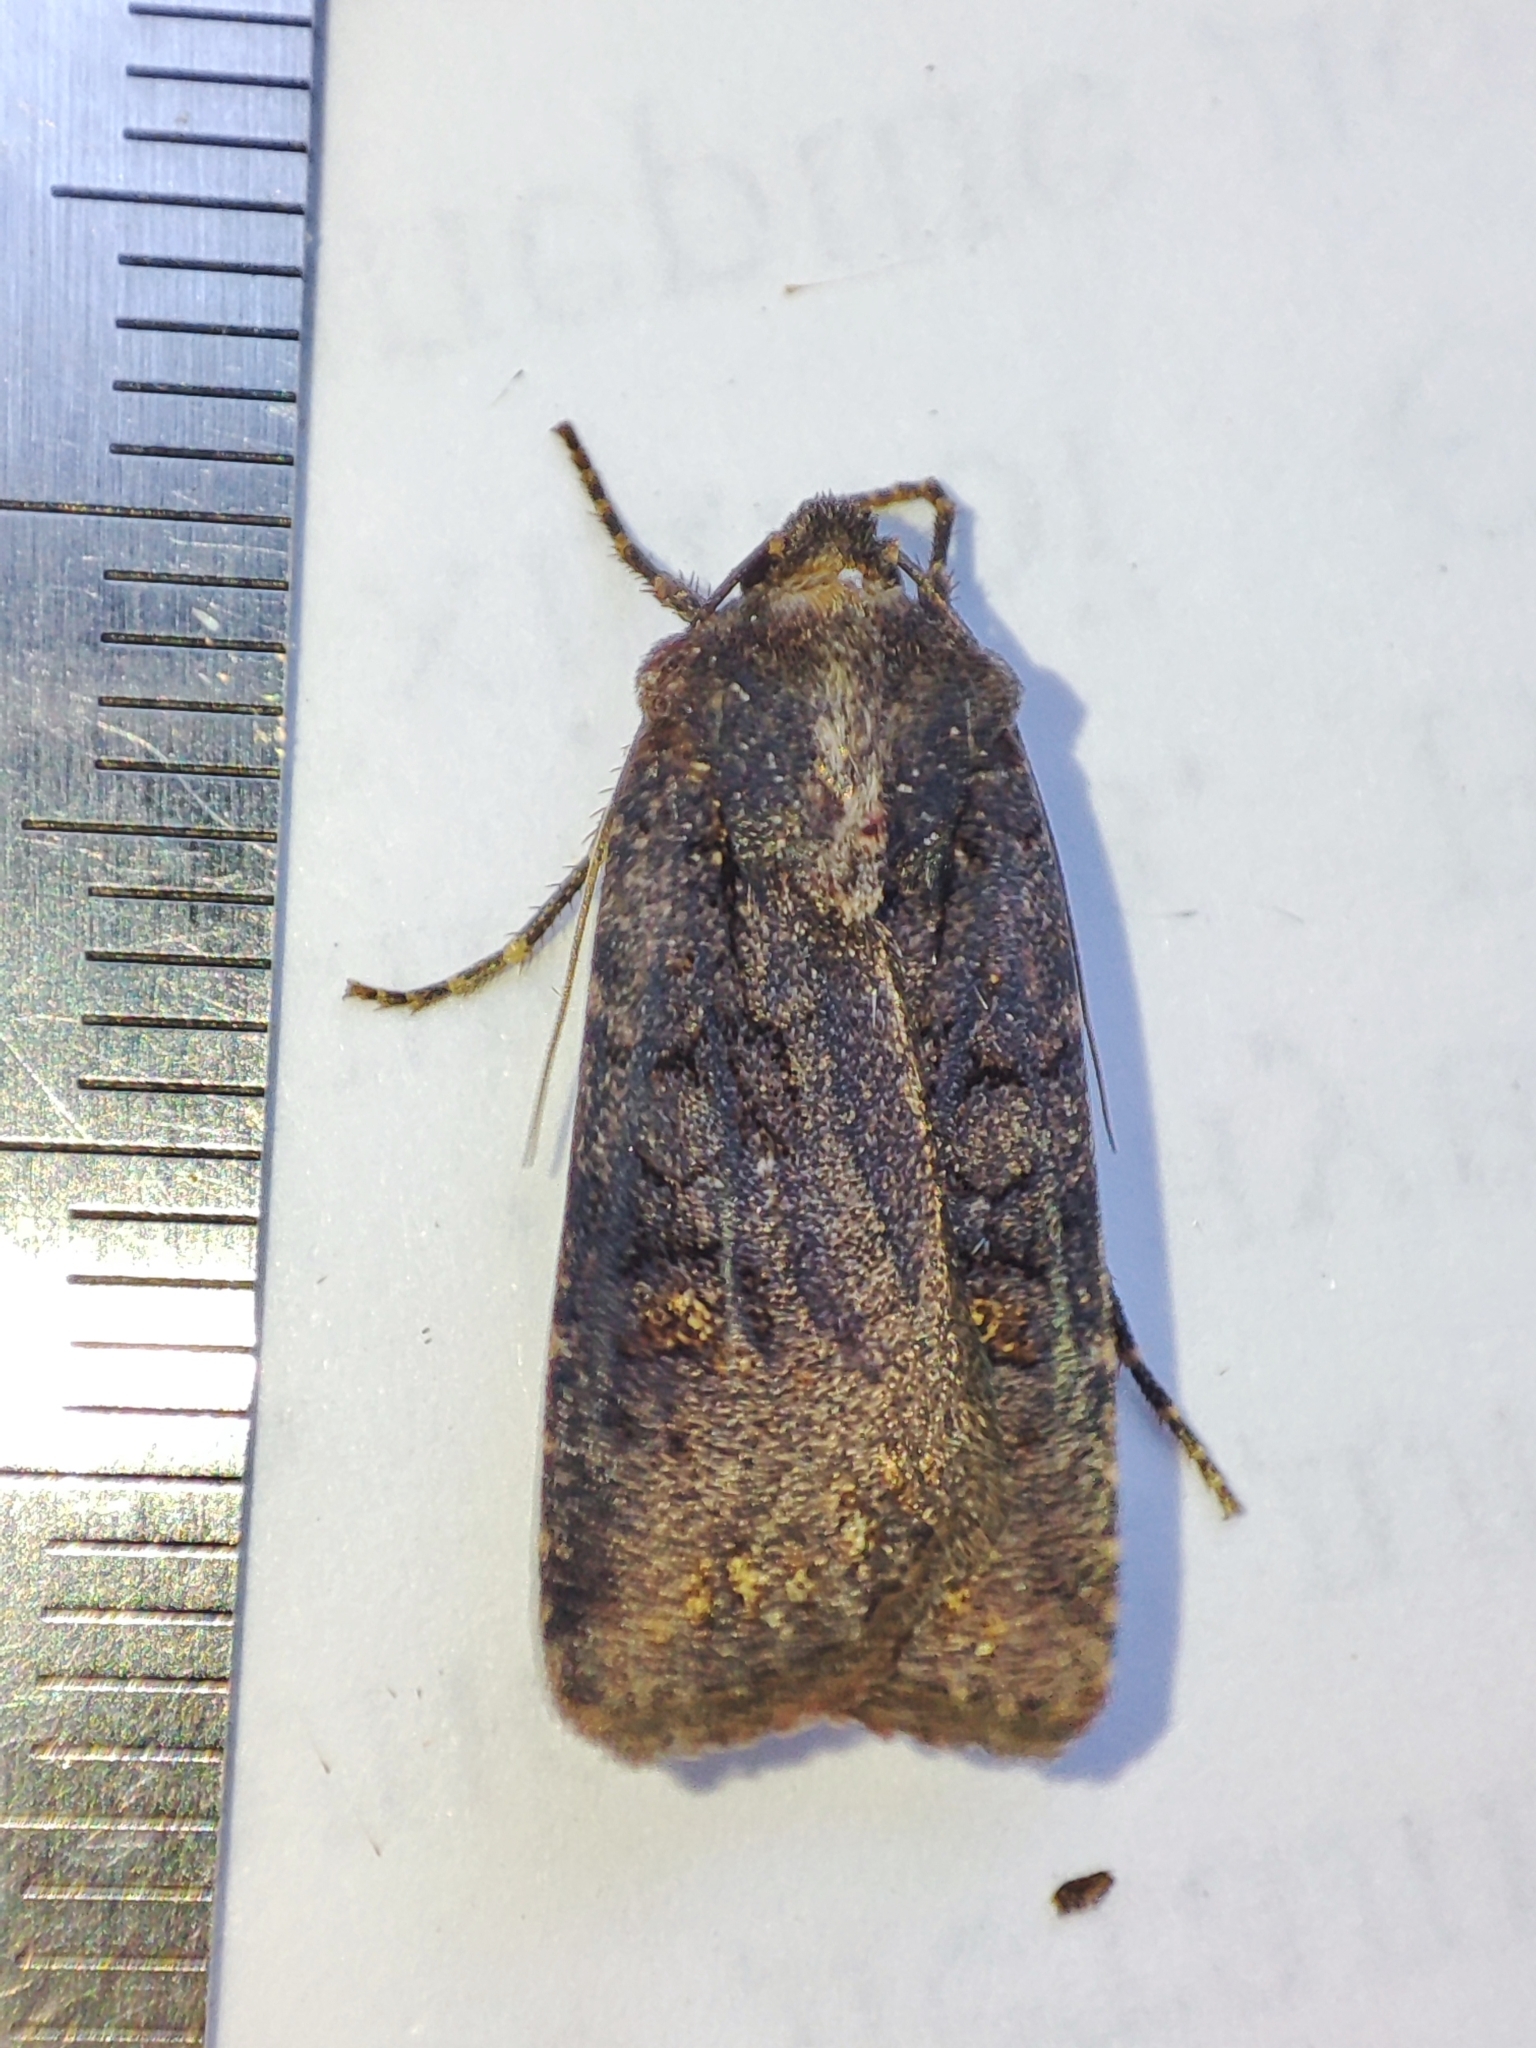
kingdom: Animalia
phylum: Arthropoda
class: Insecta
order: Lepidoptera
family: Noctuidae
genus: Euxoa
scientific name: Euxoa nigricans
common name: Garden dart
